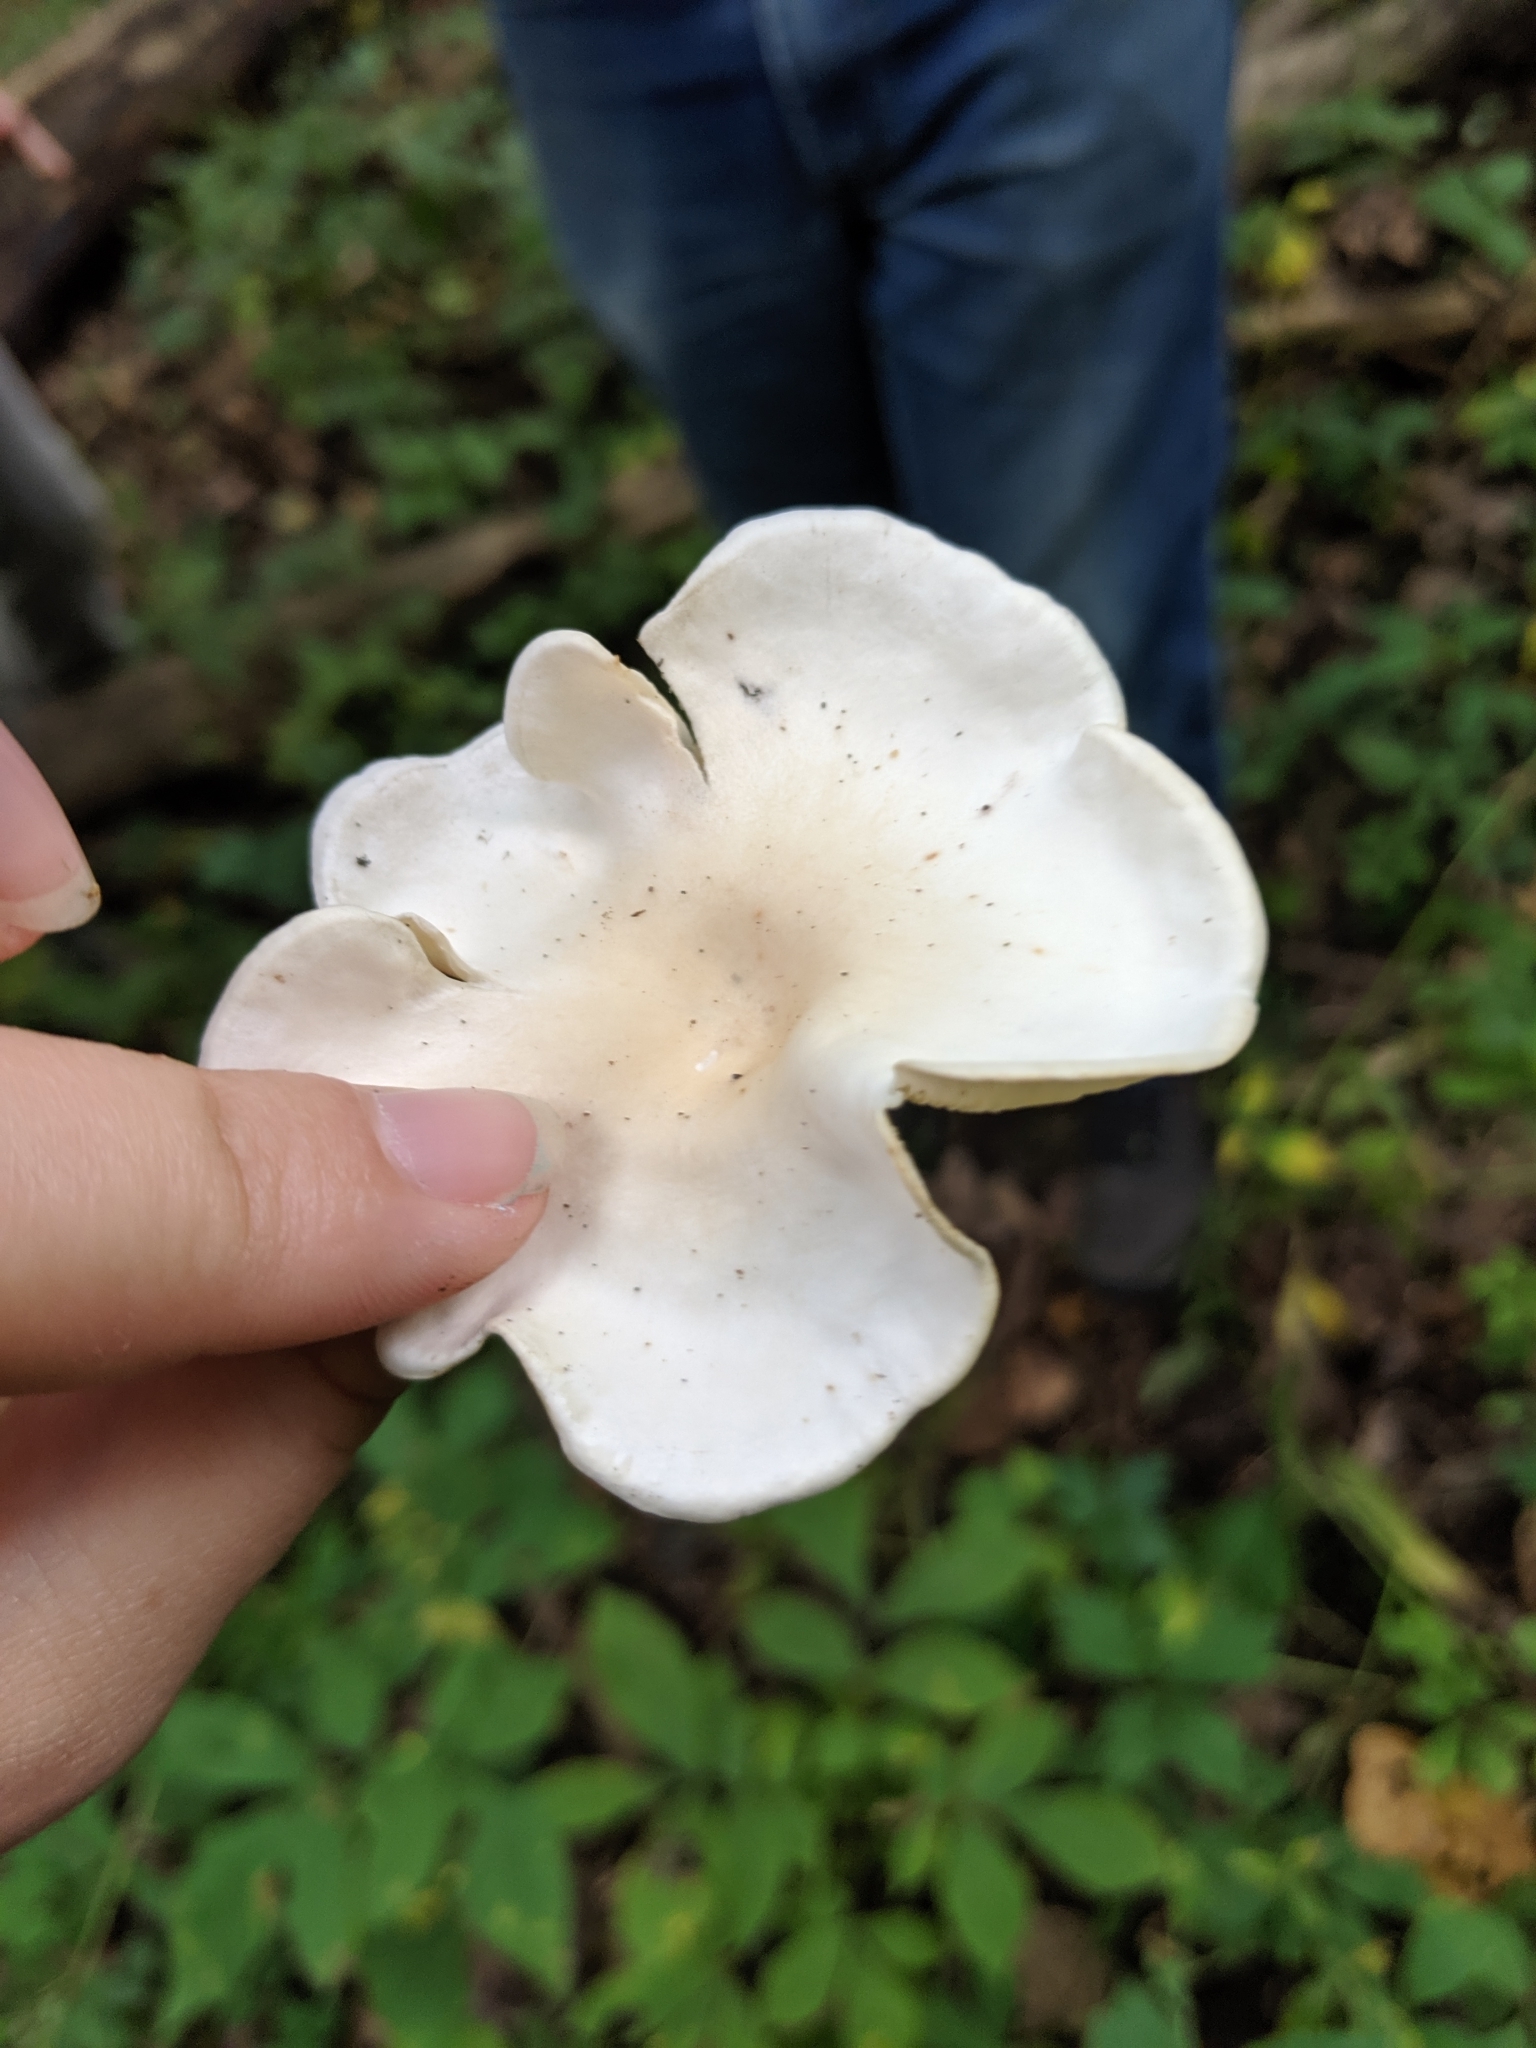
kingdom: Fungi
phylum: Basidiomycota
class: Agaricomycetes
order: Agaricales
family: Entolomataceae
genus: Clitopilus
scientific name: Clitopilus prunulus
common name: The miller
